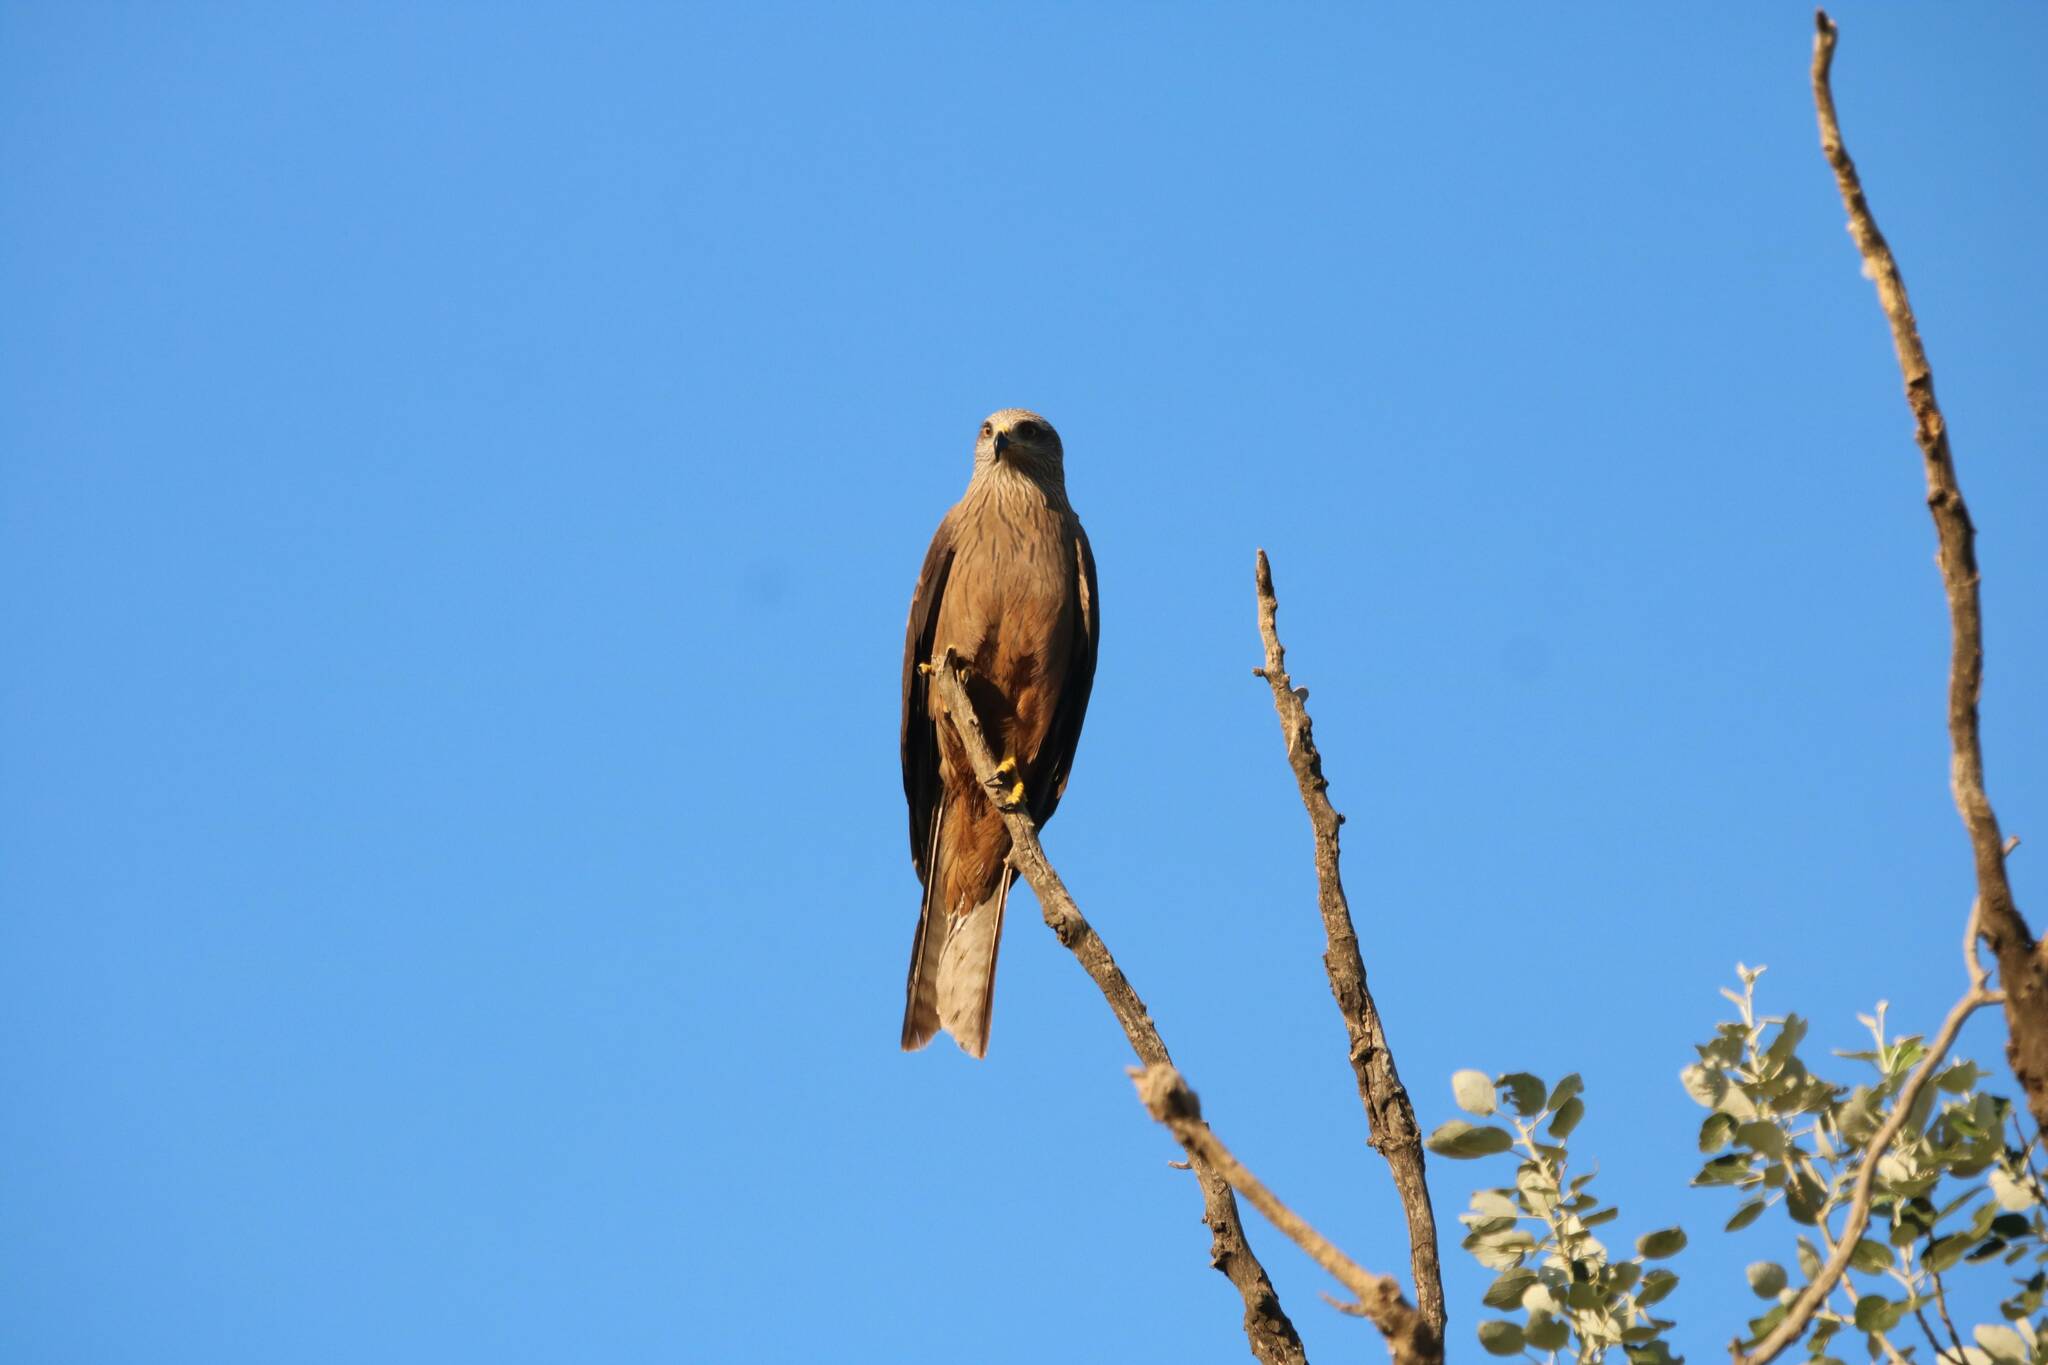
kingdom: Animalia
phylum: Chordata
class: Aves
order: Accipitriformes
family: Accipitridae
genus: Milvus
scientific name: Milvus migrans
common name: Black kite
